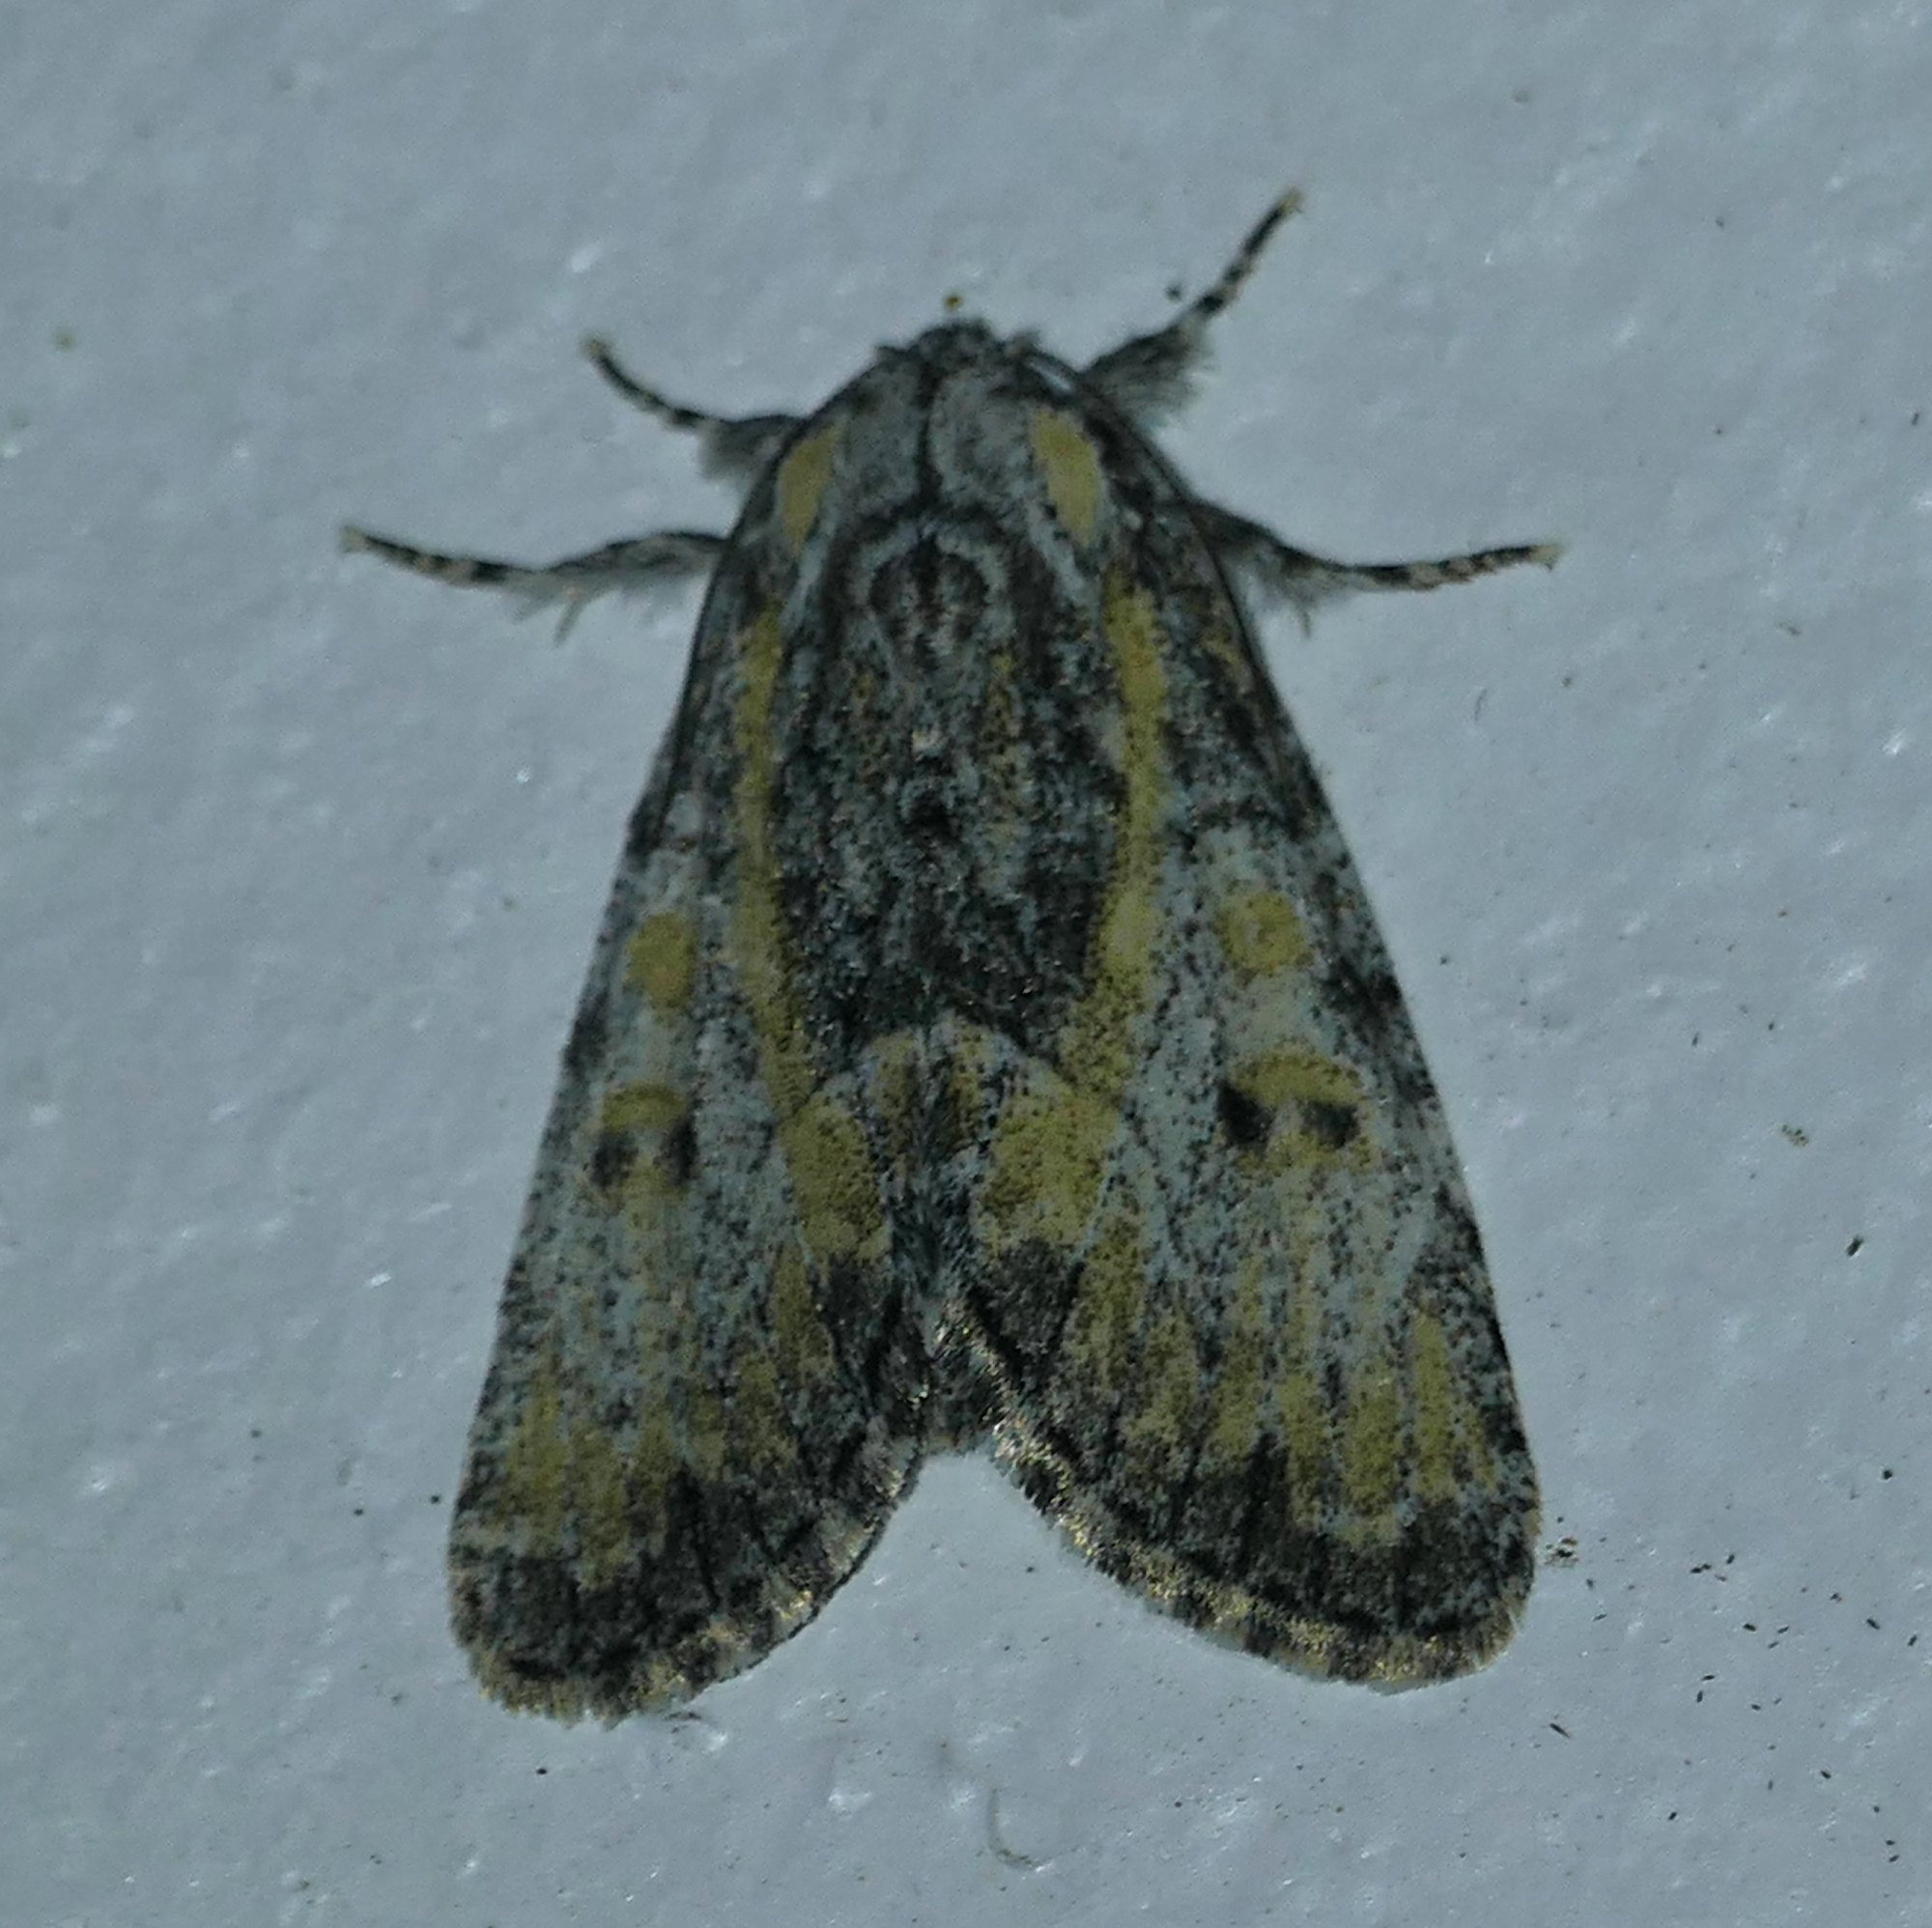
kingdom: Animalia
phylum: Arthropoda
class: Insecta
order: Lepidoptera
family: Noctuidae
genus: Raphia
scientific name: Raphia frater
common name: Brother
